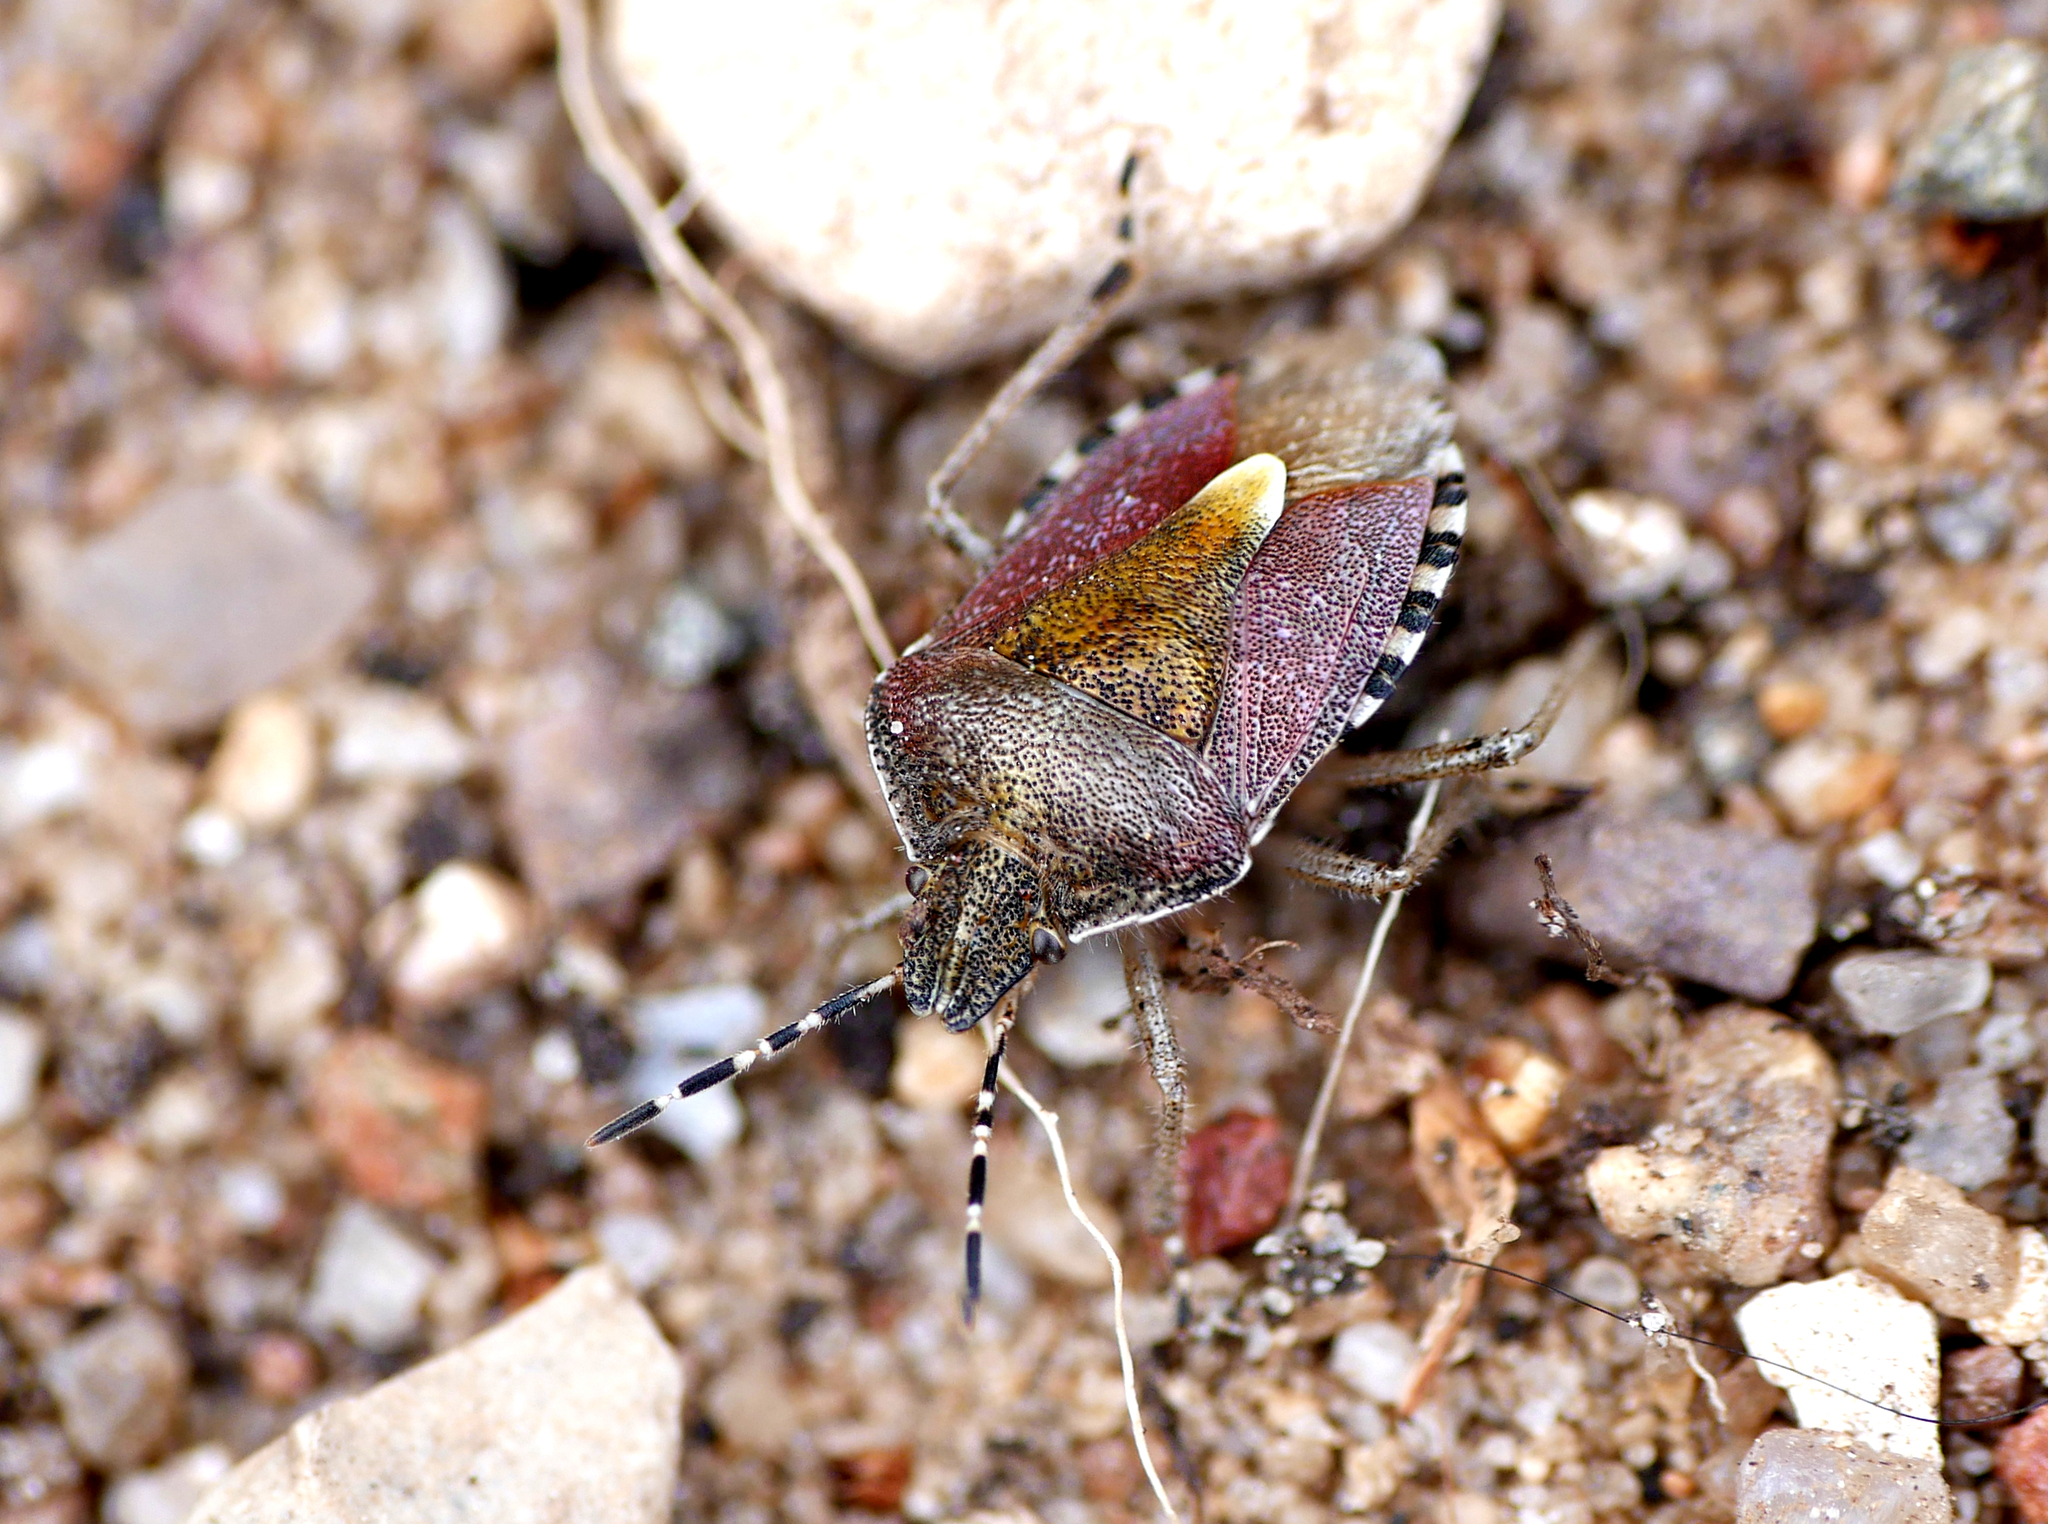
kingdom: Animalia
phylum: Arthropoda
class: Insecta
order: Hemiptera
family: Pentatomidae
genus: Dolycoris
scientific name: Dolycoris baccarum
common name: Sloe bug
